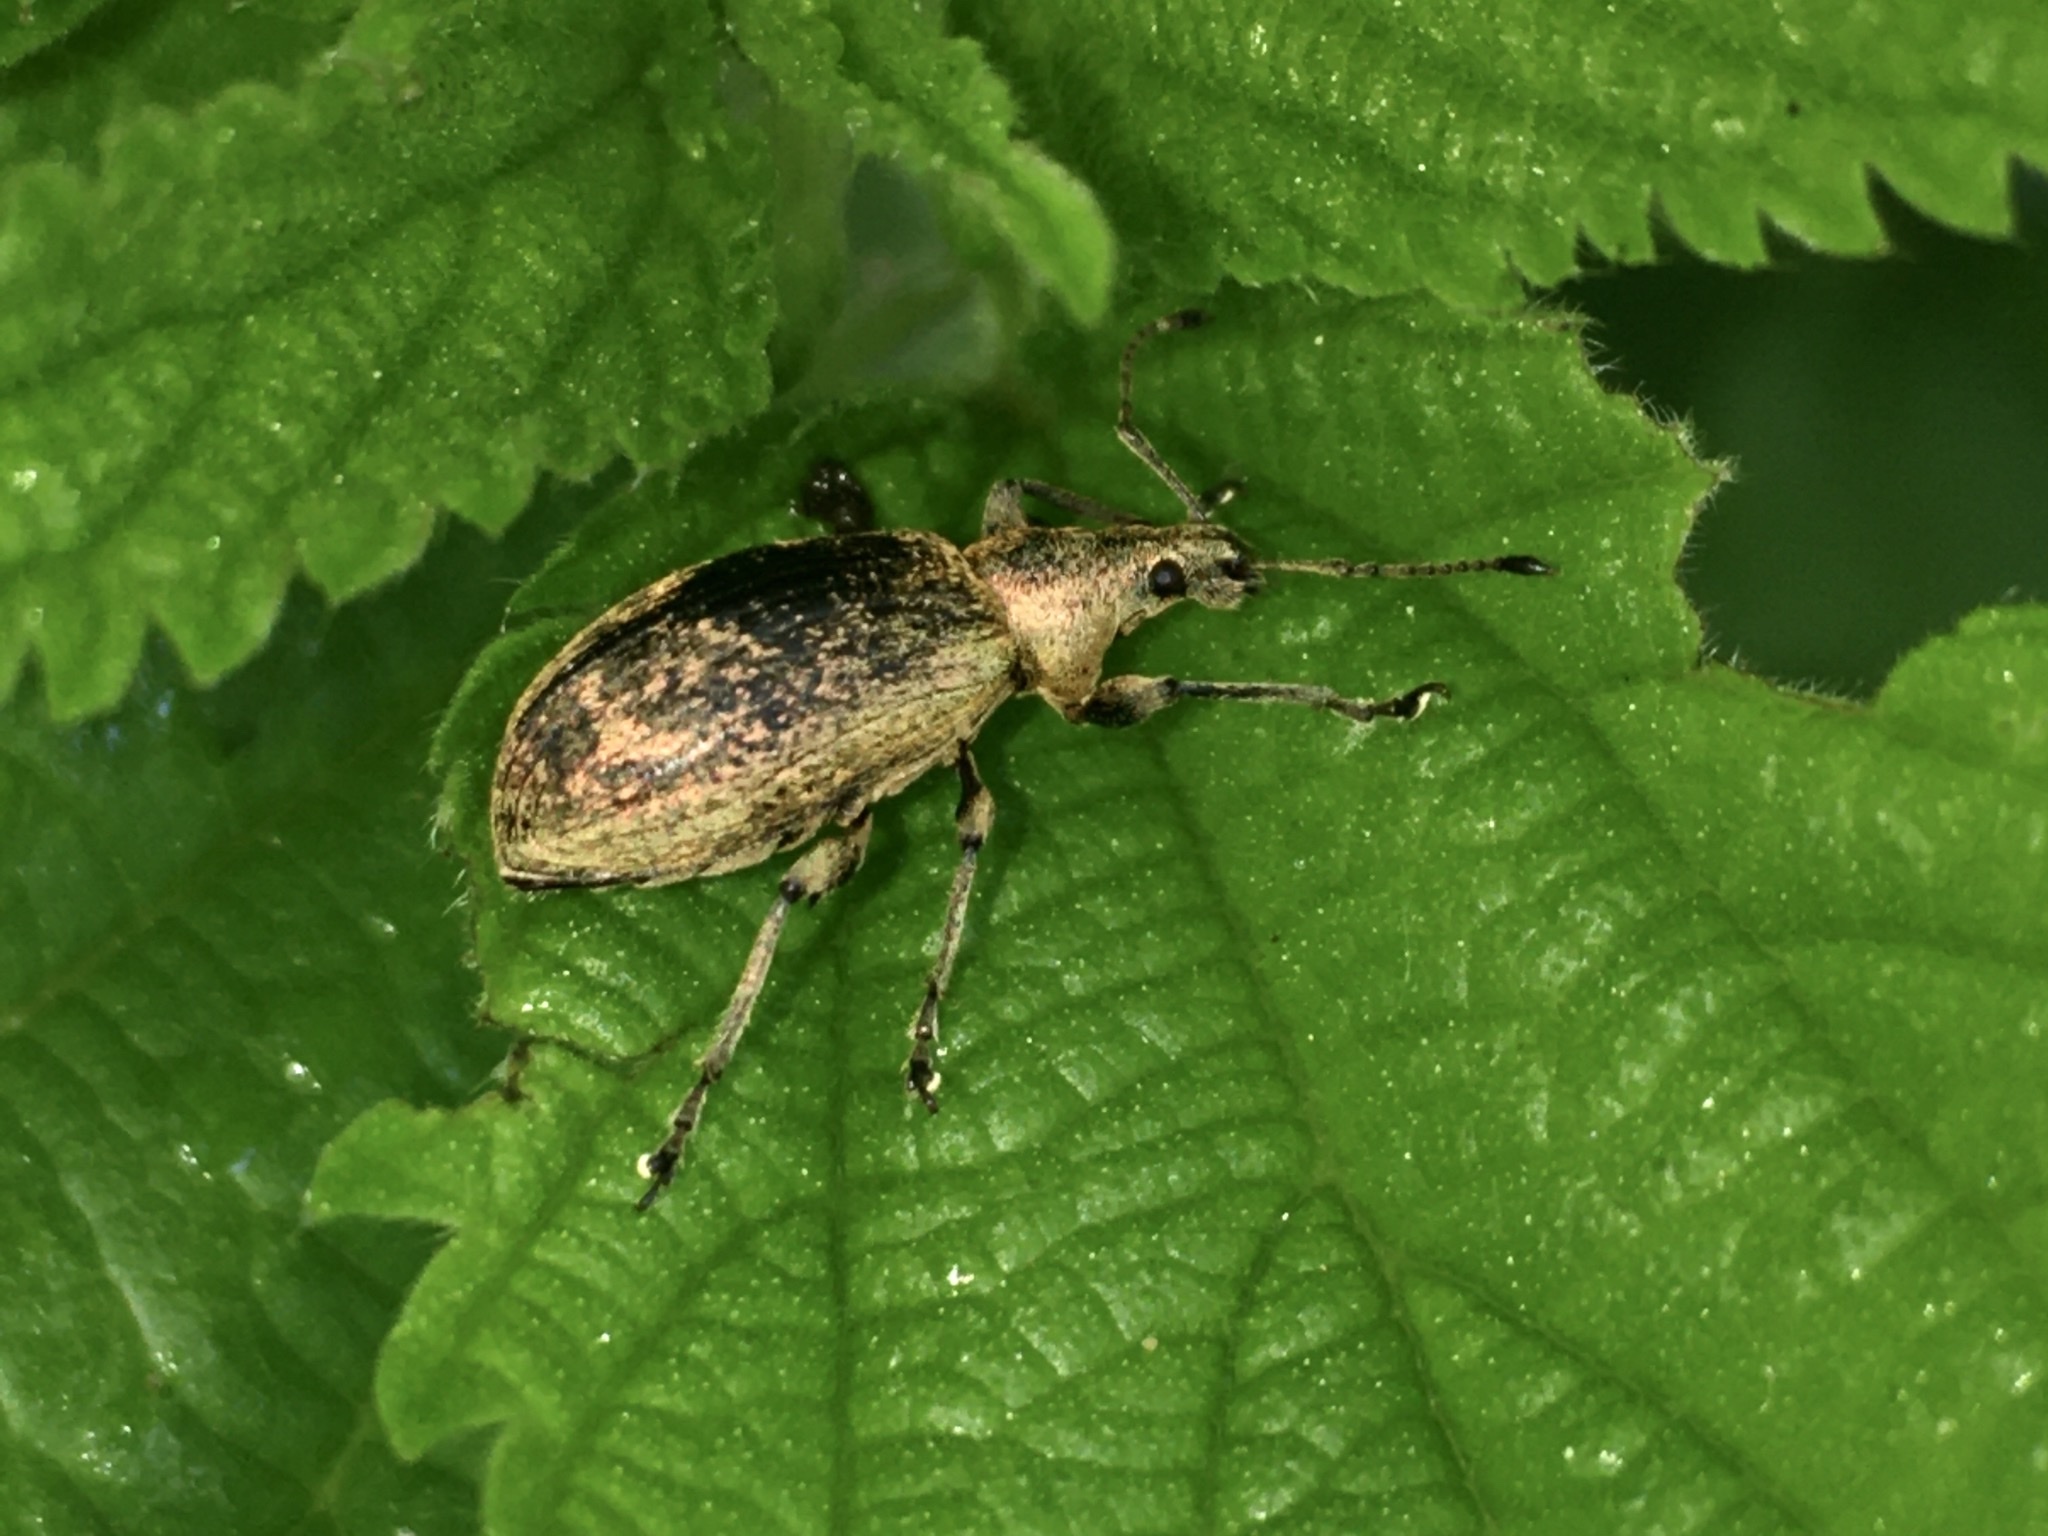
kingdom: Animalia
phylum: Arthropoda
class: Insecta
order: Coleoptera
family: Curculionidae
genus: Phyllobius
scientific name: Phyllobius pomaceus
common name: Green nettle weevil
